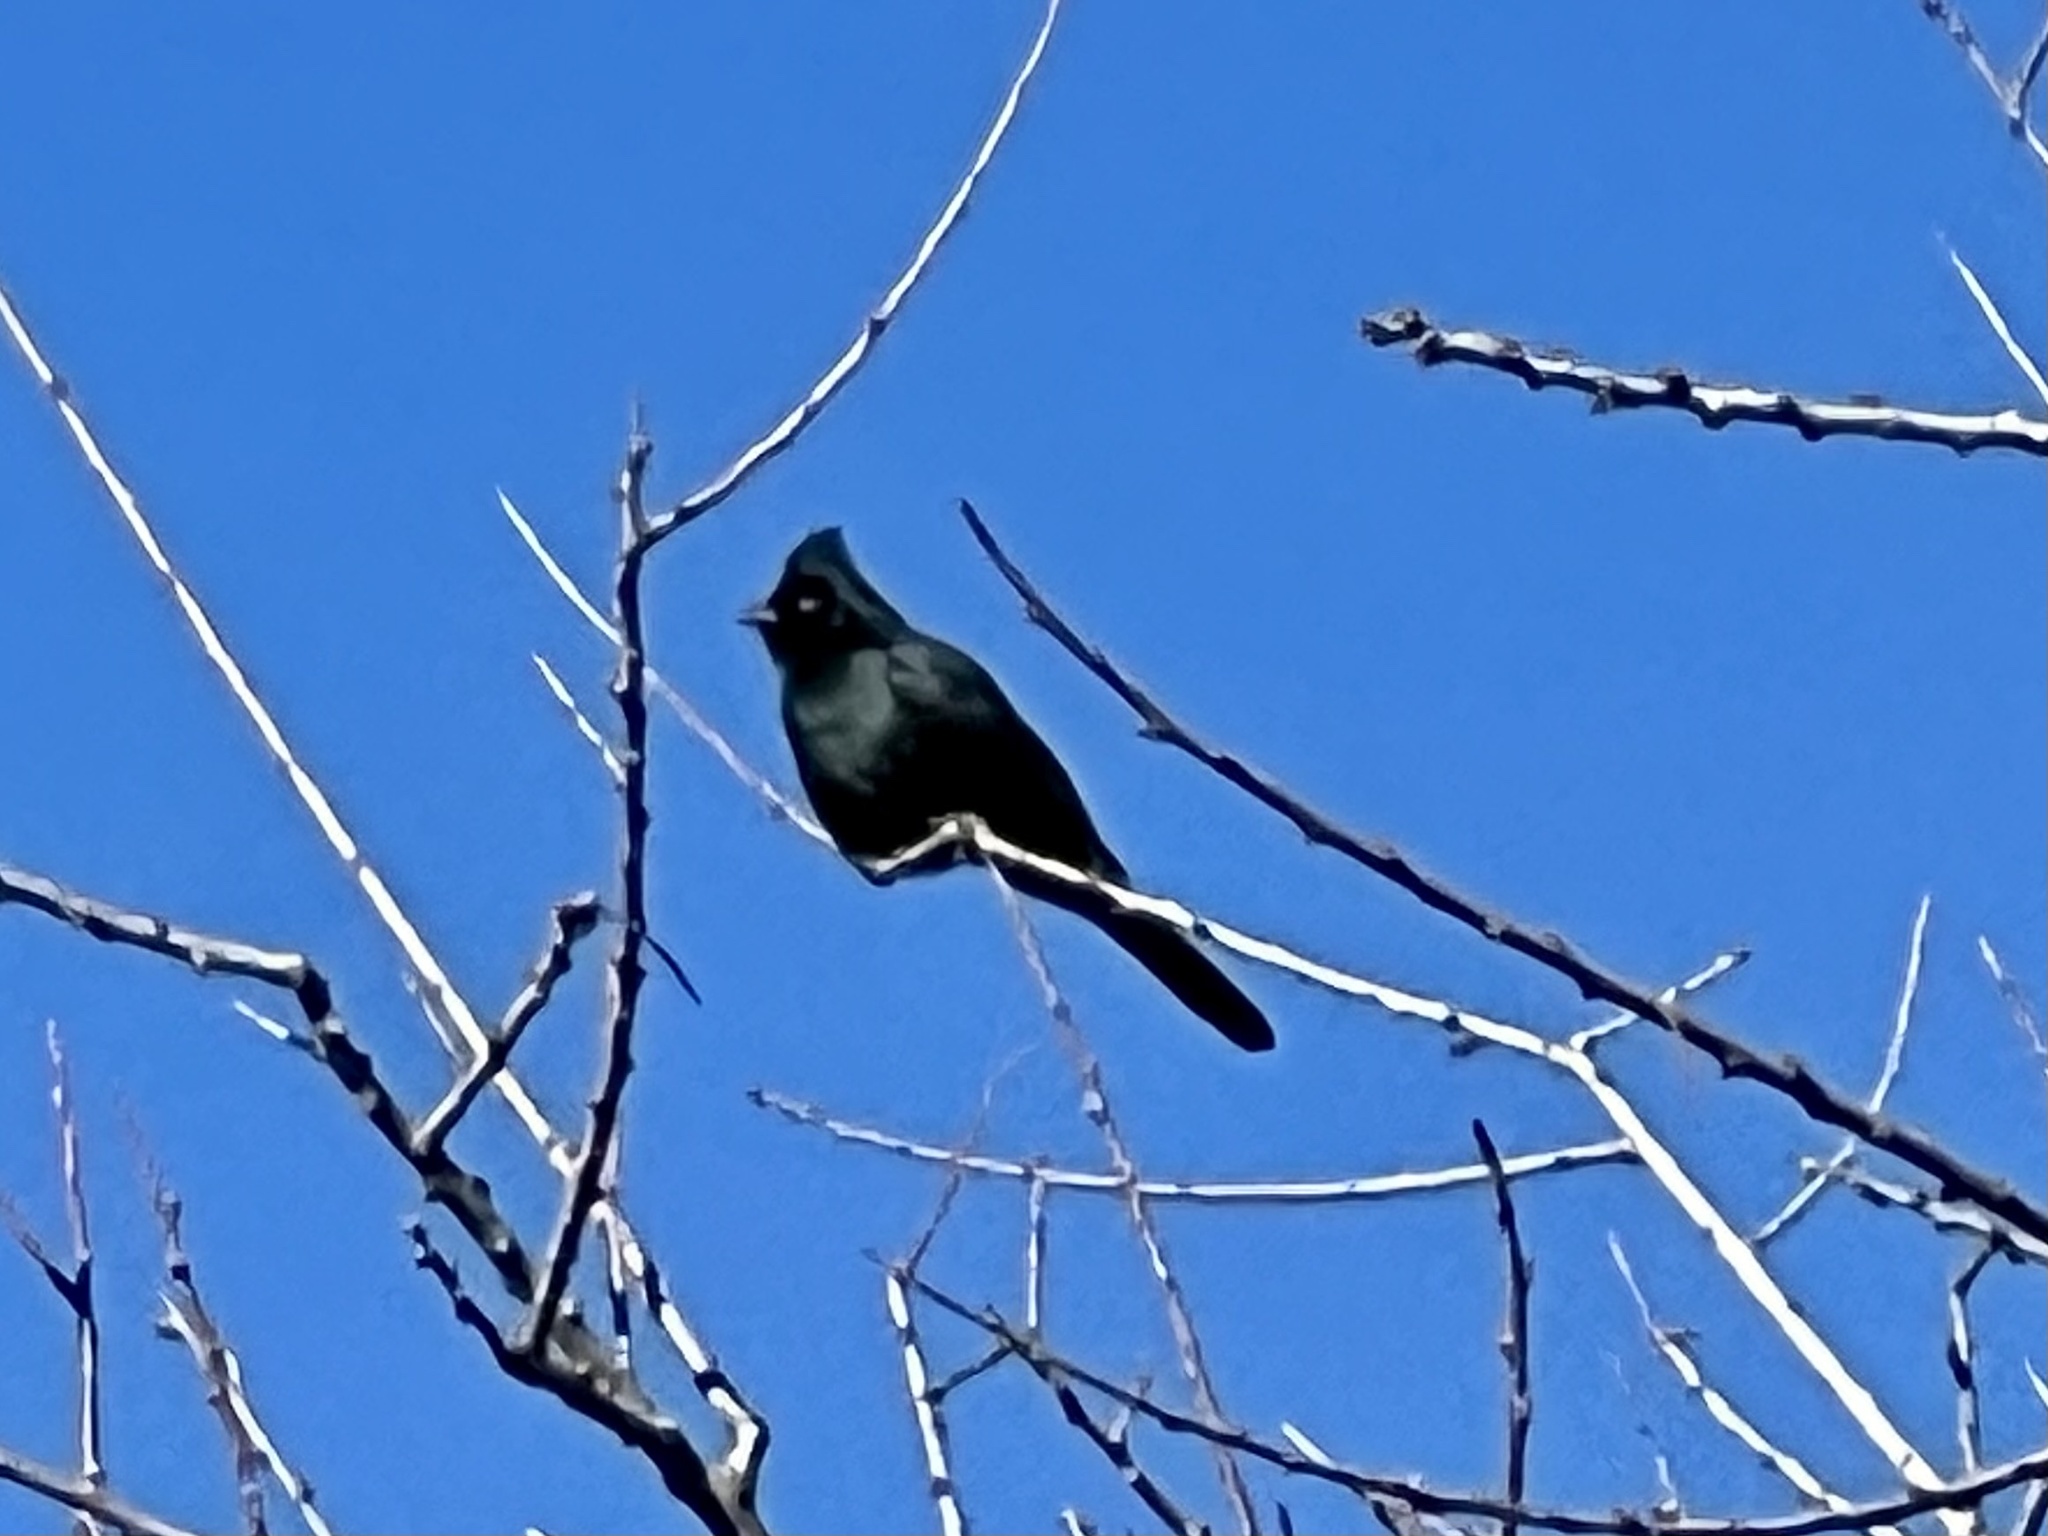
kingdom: Animalia
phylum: Chordata
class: Aves
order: Passeriformes
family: Ptilogonatidae
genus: Phainopepla
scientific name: Phainopepla nitens
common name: Phainopepla
